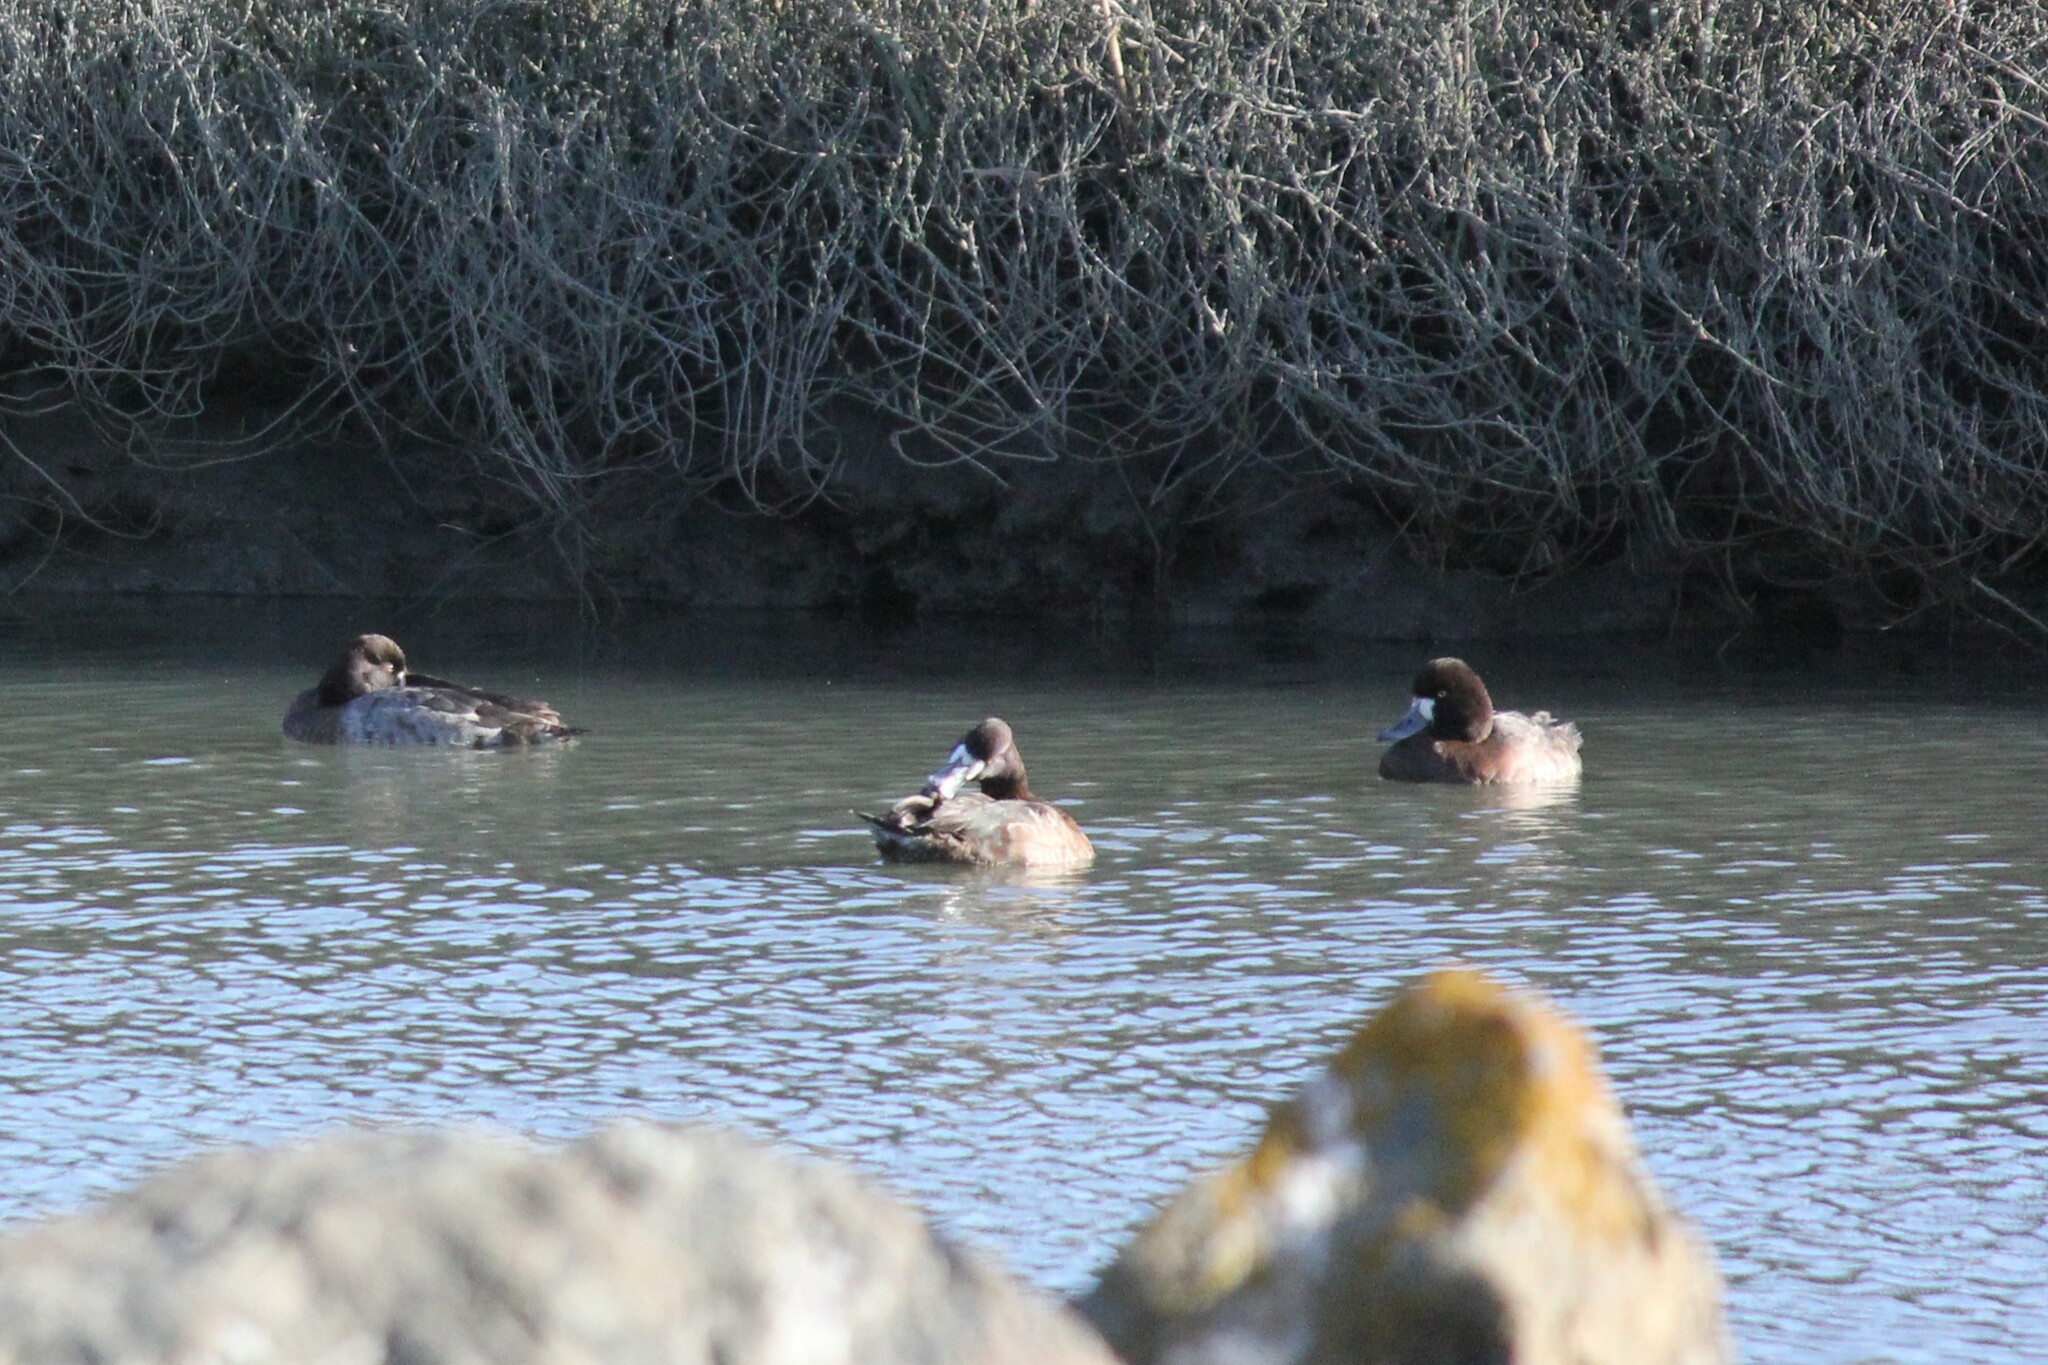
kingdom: Animalia
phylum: Chordata
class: Aves
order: Anseriformes
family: Anatidae
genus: Aythya
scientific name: Aythya affinis
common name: Lesser scaup
